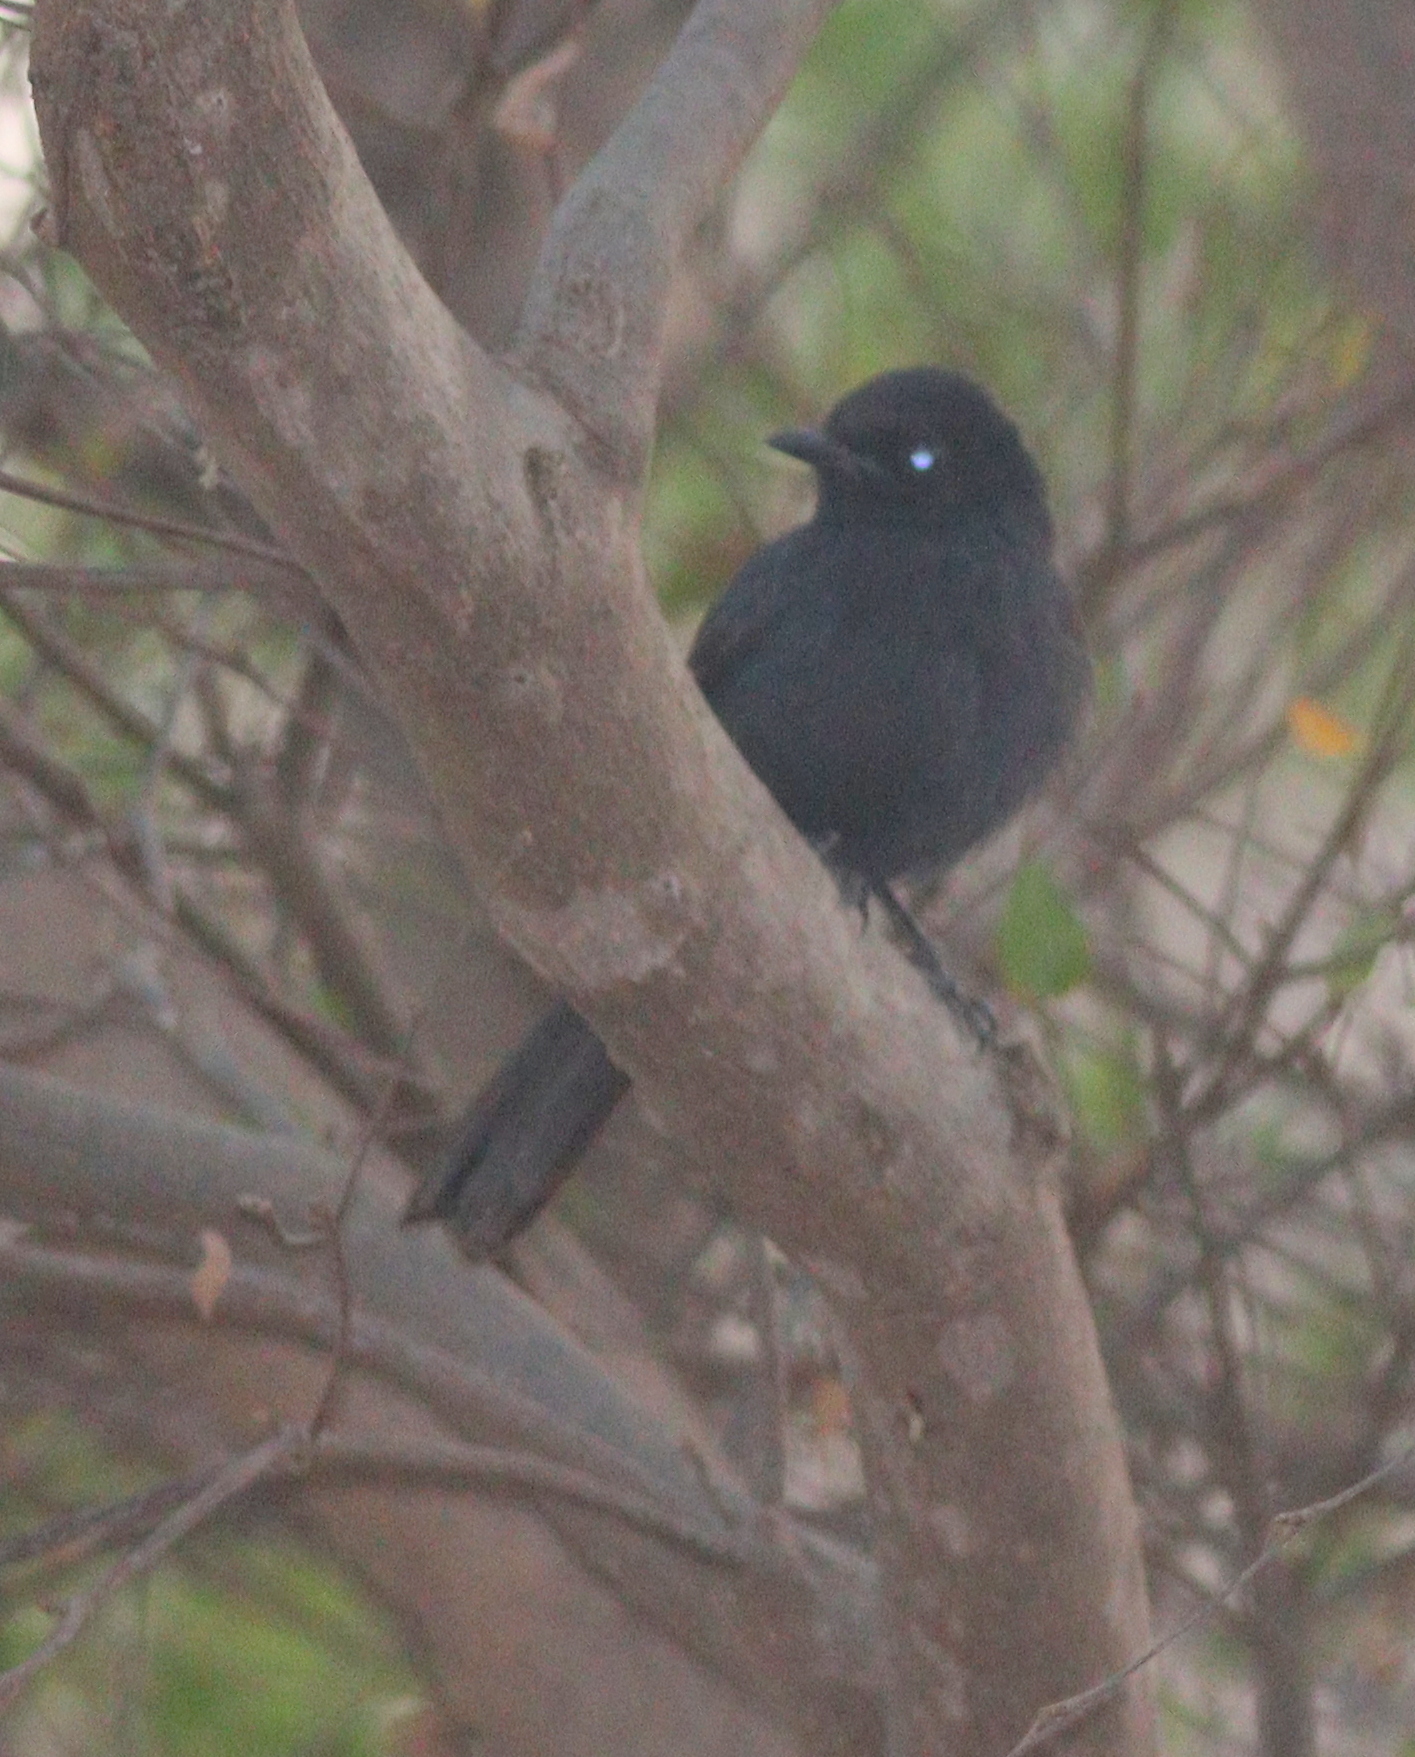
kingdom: Animalia
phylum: Chordata
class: Aves
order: Passeriformes
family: Muscicapidae
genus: Melaenornis
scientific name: Melaenornis edolioides
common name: Northern black flycatcher
